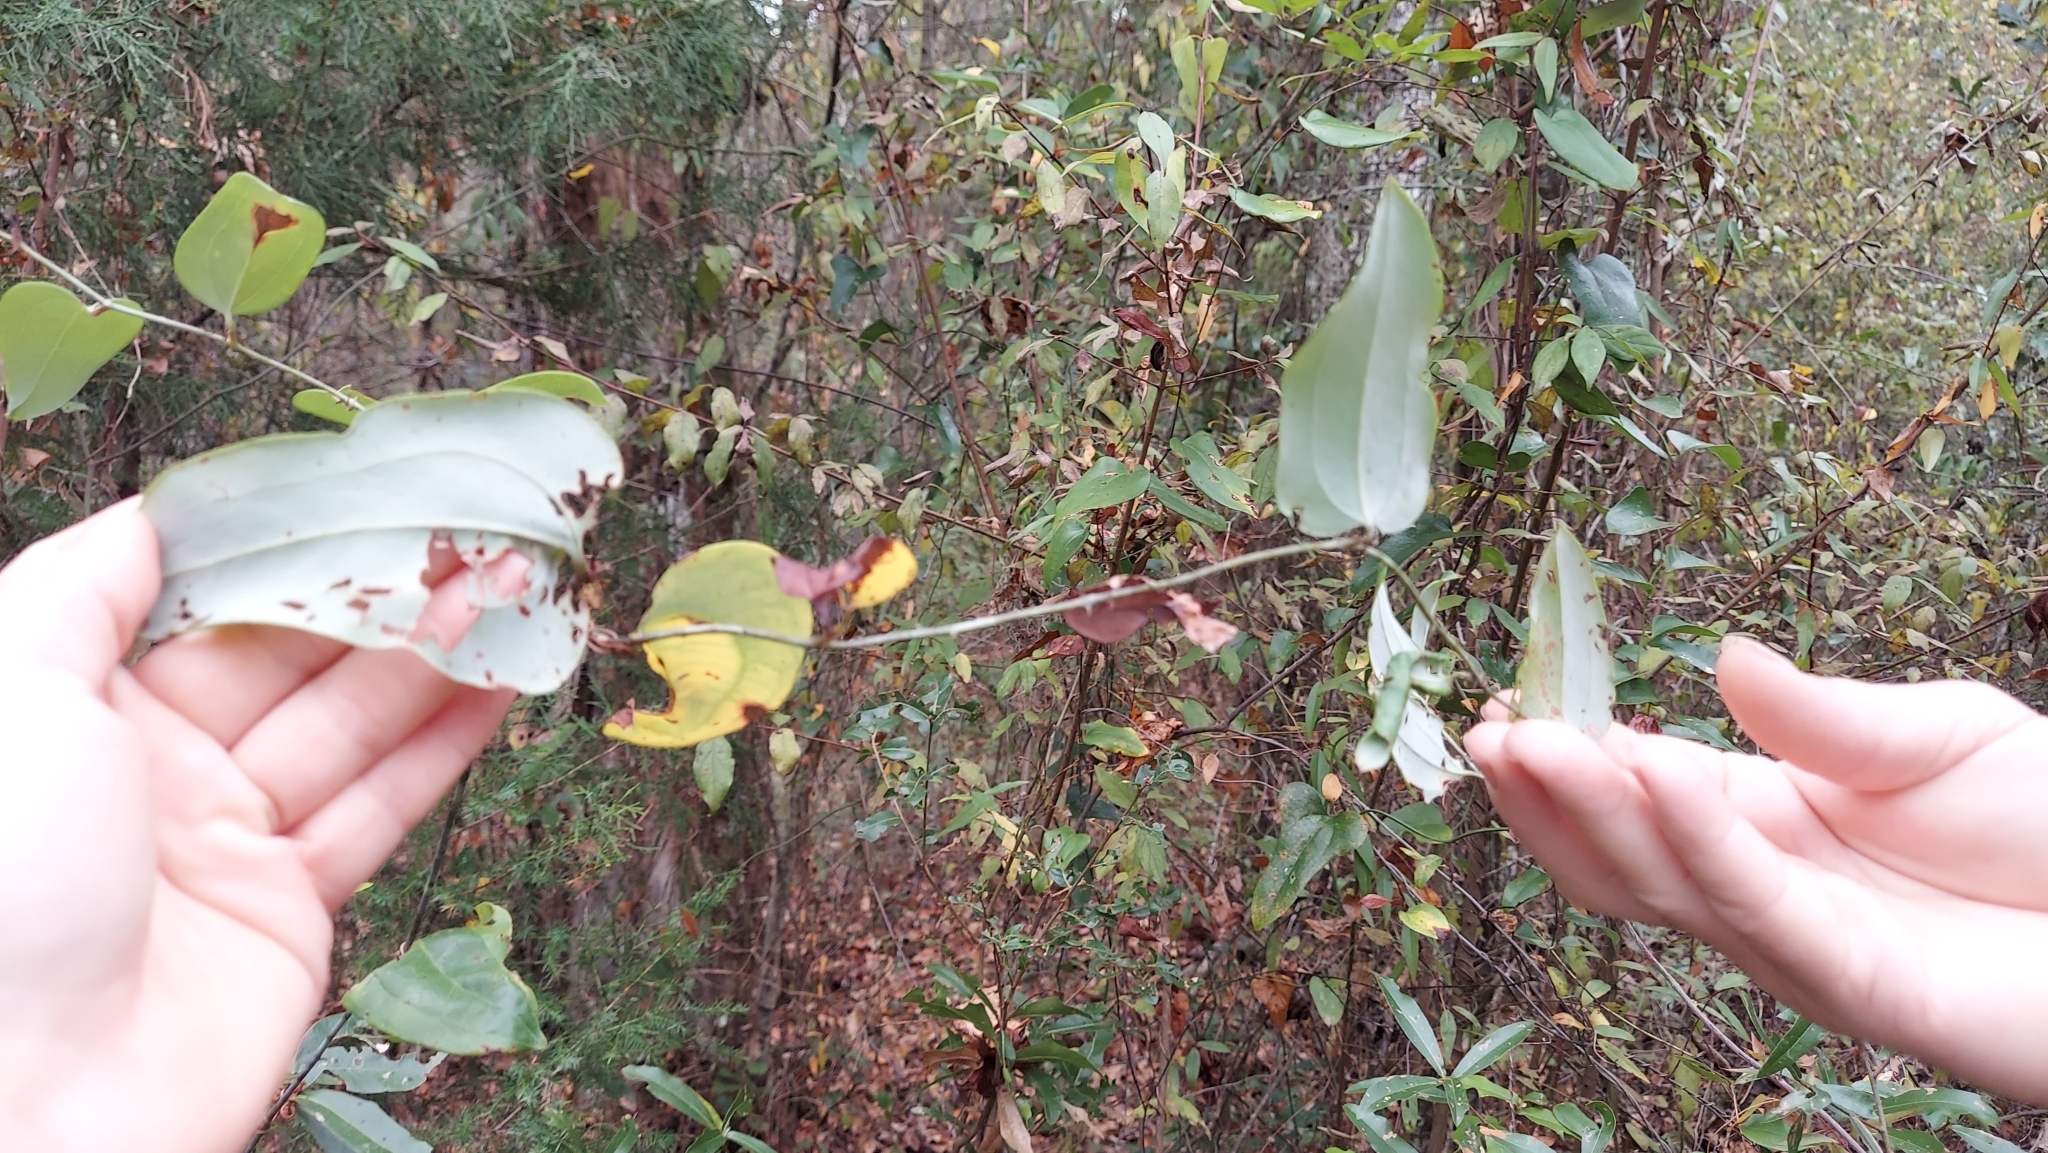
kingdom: Plantae
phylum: Tracheophyta
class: Liliopsida
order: Liliales
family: Smilacaceae
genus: Smilax
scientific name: Smilax glauca
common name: Cat greenbrier
